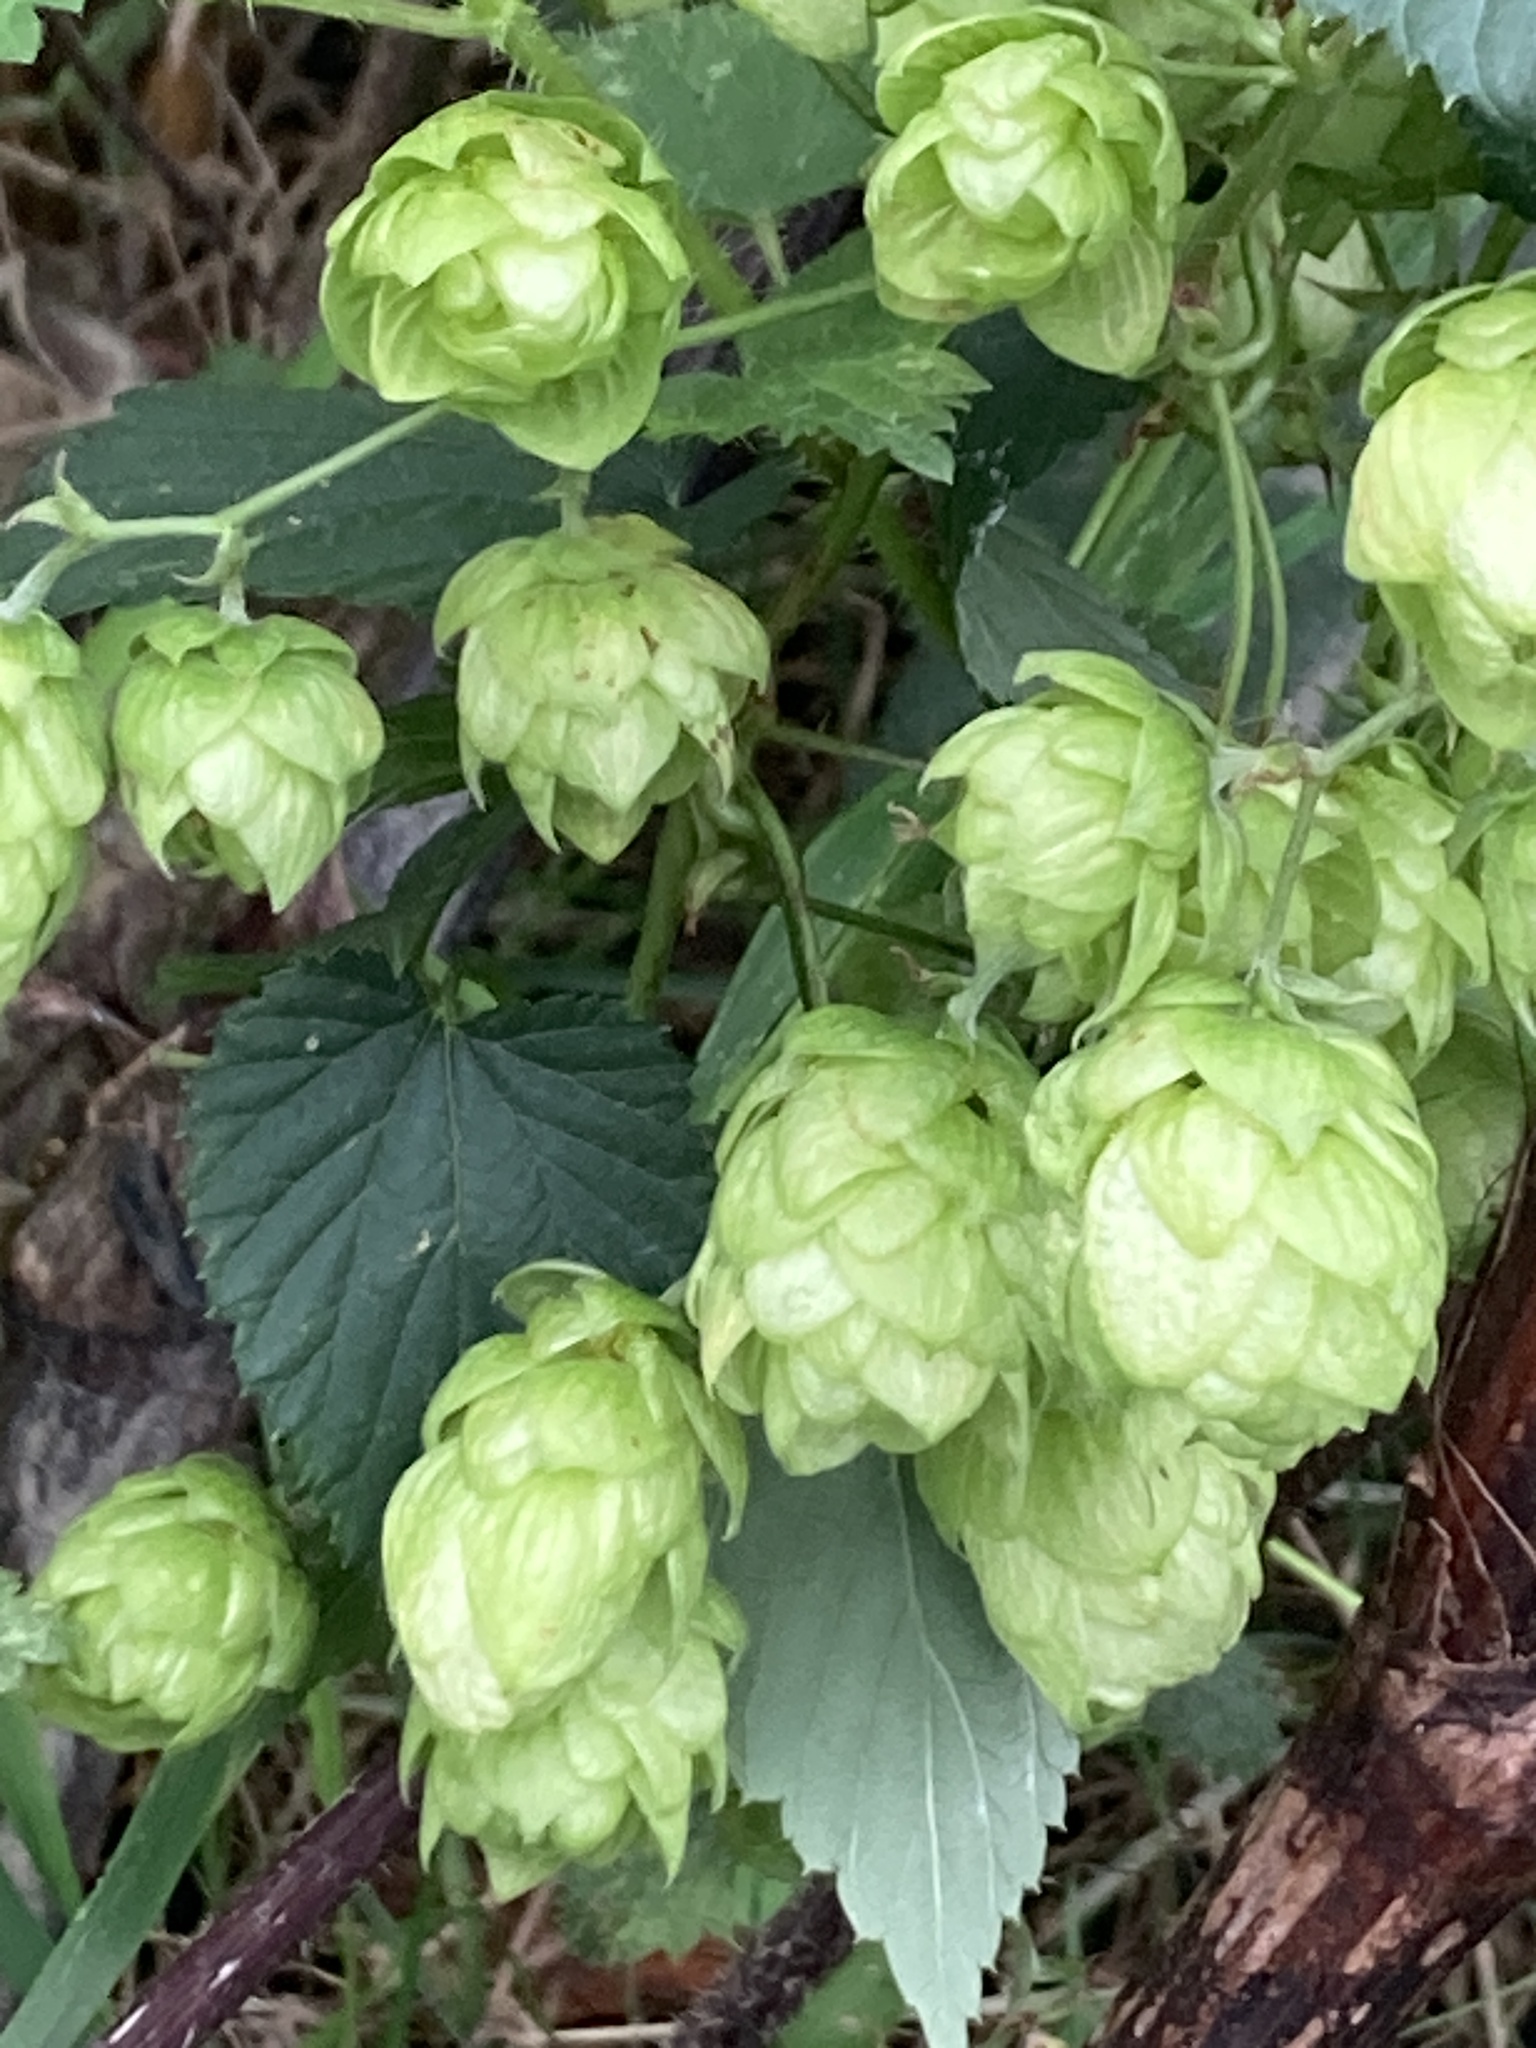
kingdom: Plantae
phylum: Tracheophyta
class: Magnoliopsida
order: Rosales
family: Cannabaceae
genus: Humulus
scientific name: Humulus lupulus
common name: Hop
